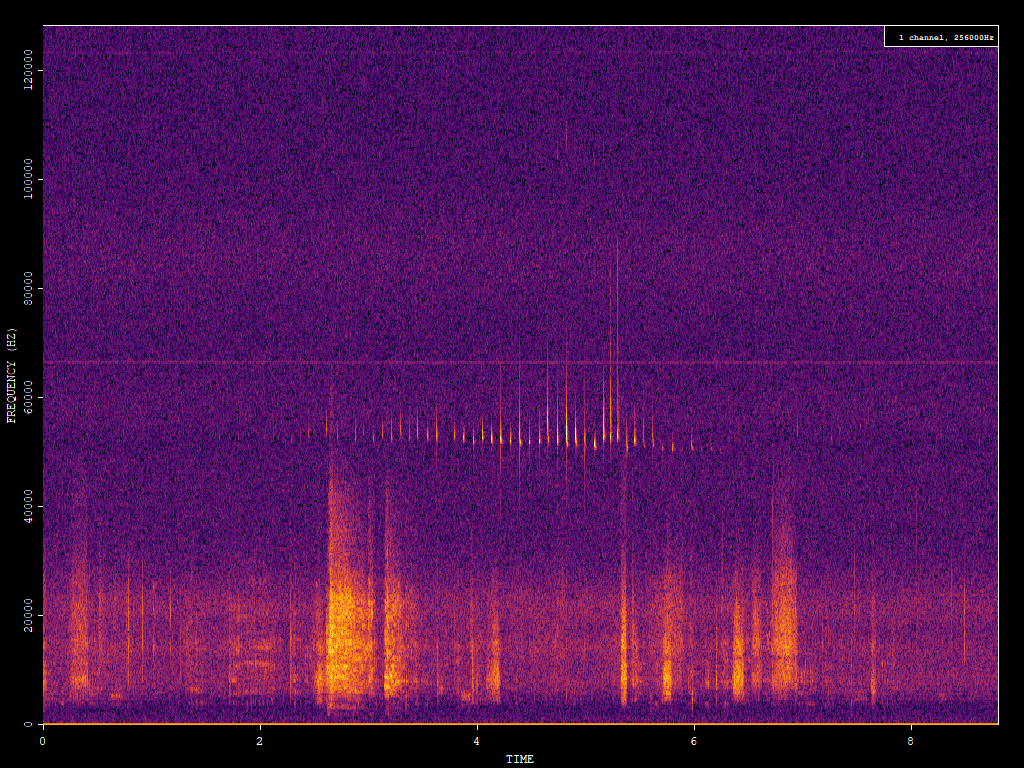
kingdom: Animalia
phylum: Chordata
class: Mammalia
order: Chiroptera
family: Vespertilionidae
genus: Pipistrellus
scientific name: Pipistrellus pygmaeus
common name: Soprano pipistrelle
